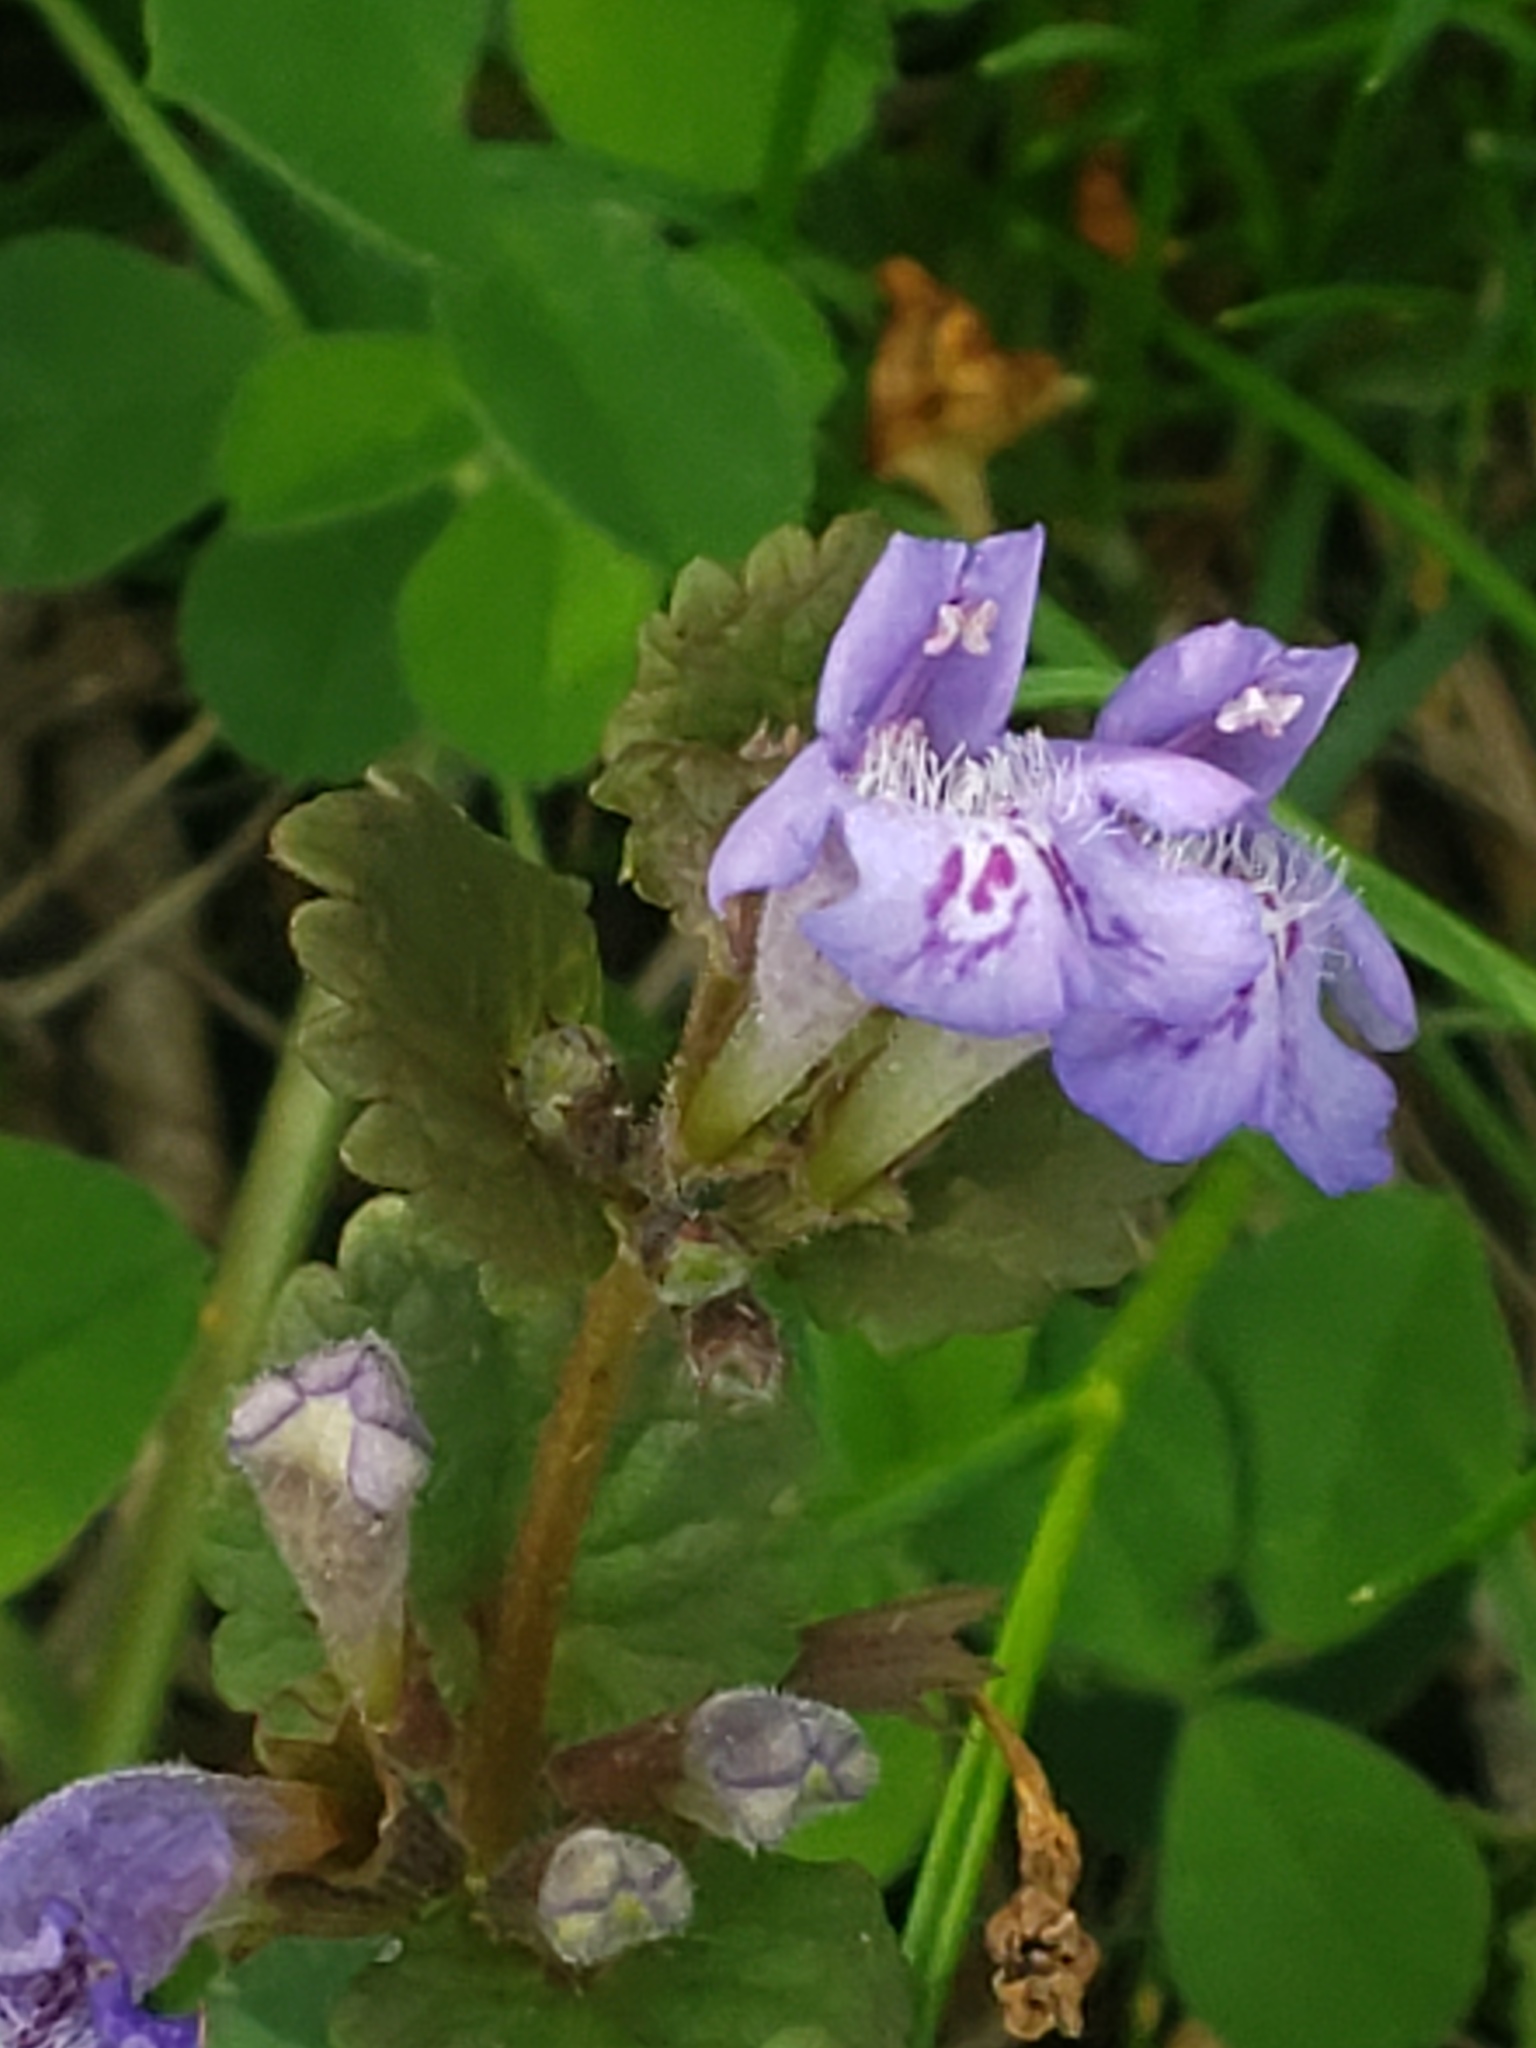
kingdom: Plantae
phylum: Tracheophyta
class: Magnoliopsida
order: Lamiales
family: Lamiaceae
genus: Glechoma
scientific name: Glechoma hederacea
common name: Ground ivy
